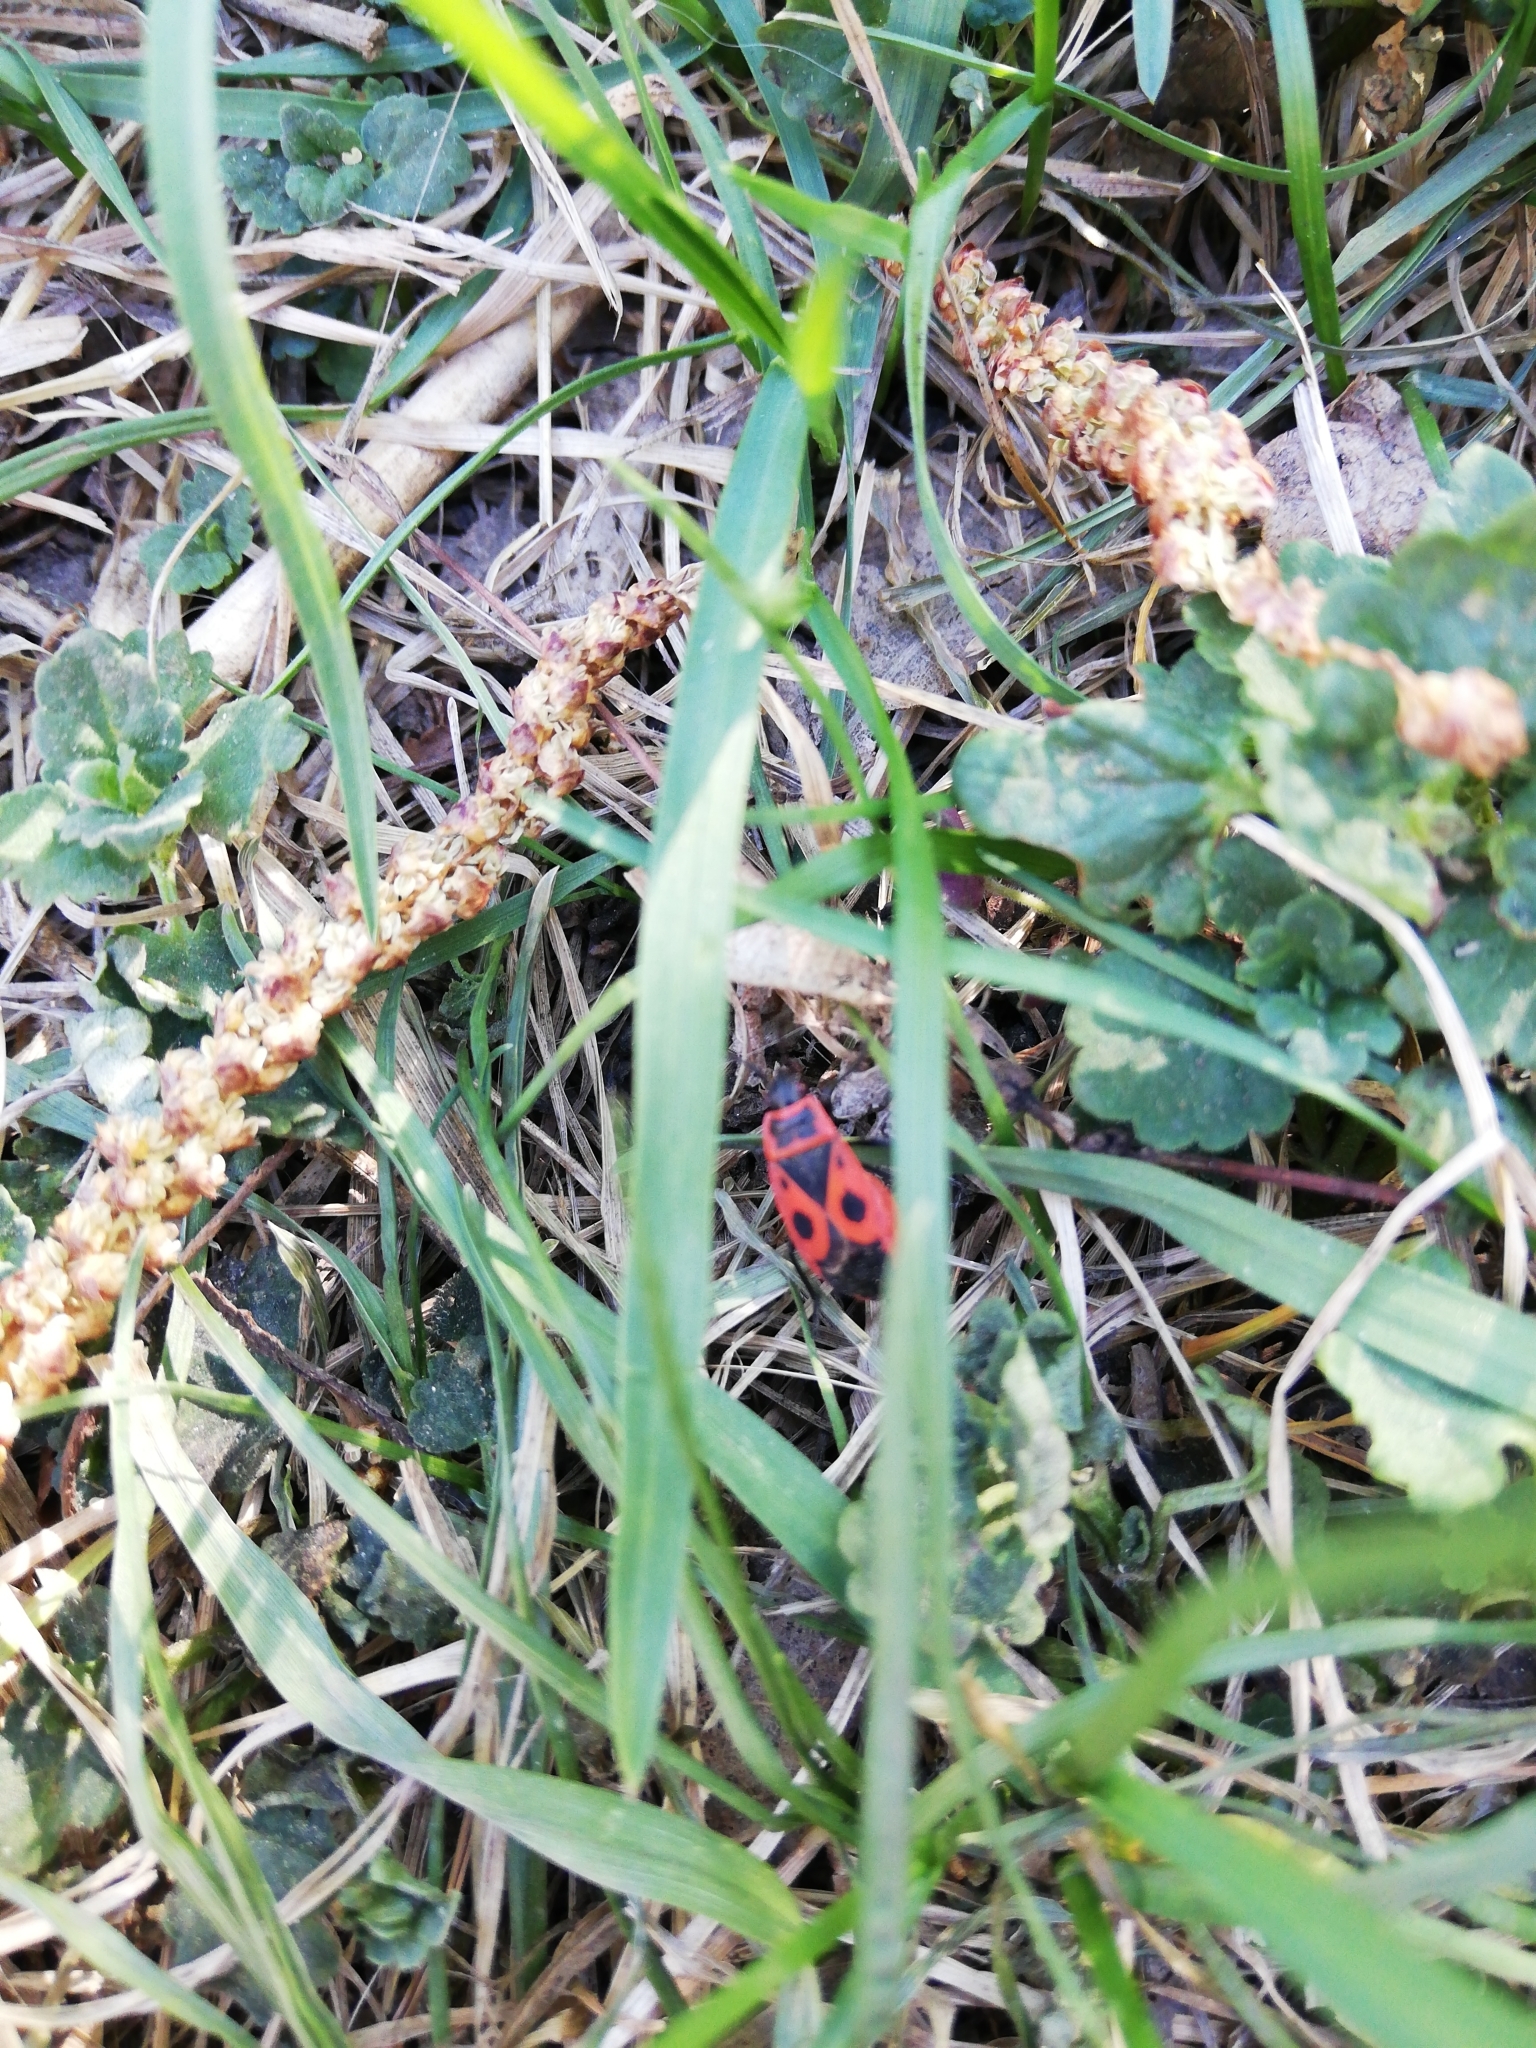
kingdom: Animalia
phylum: Arthropoda
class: Insecta
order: Hemiptera
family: Pyrrhocoridae
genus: Pyrrhocoris
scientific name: Pyrrhocoris apterus
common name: Firebug
